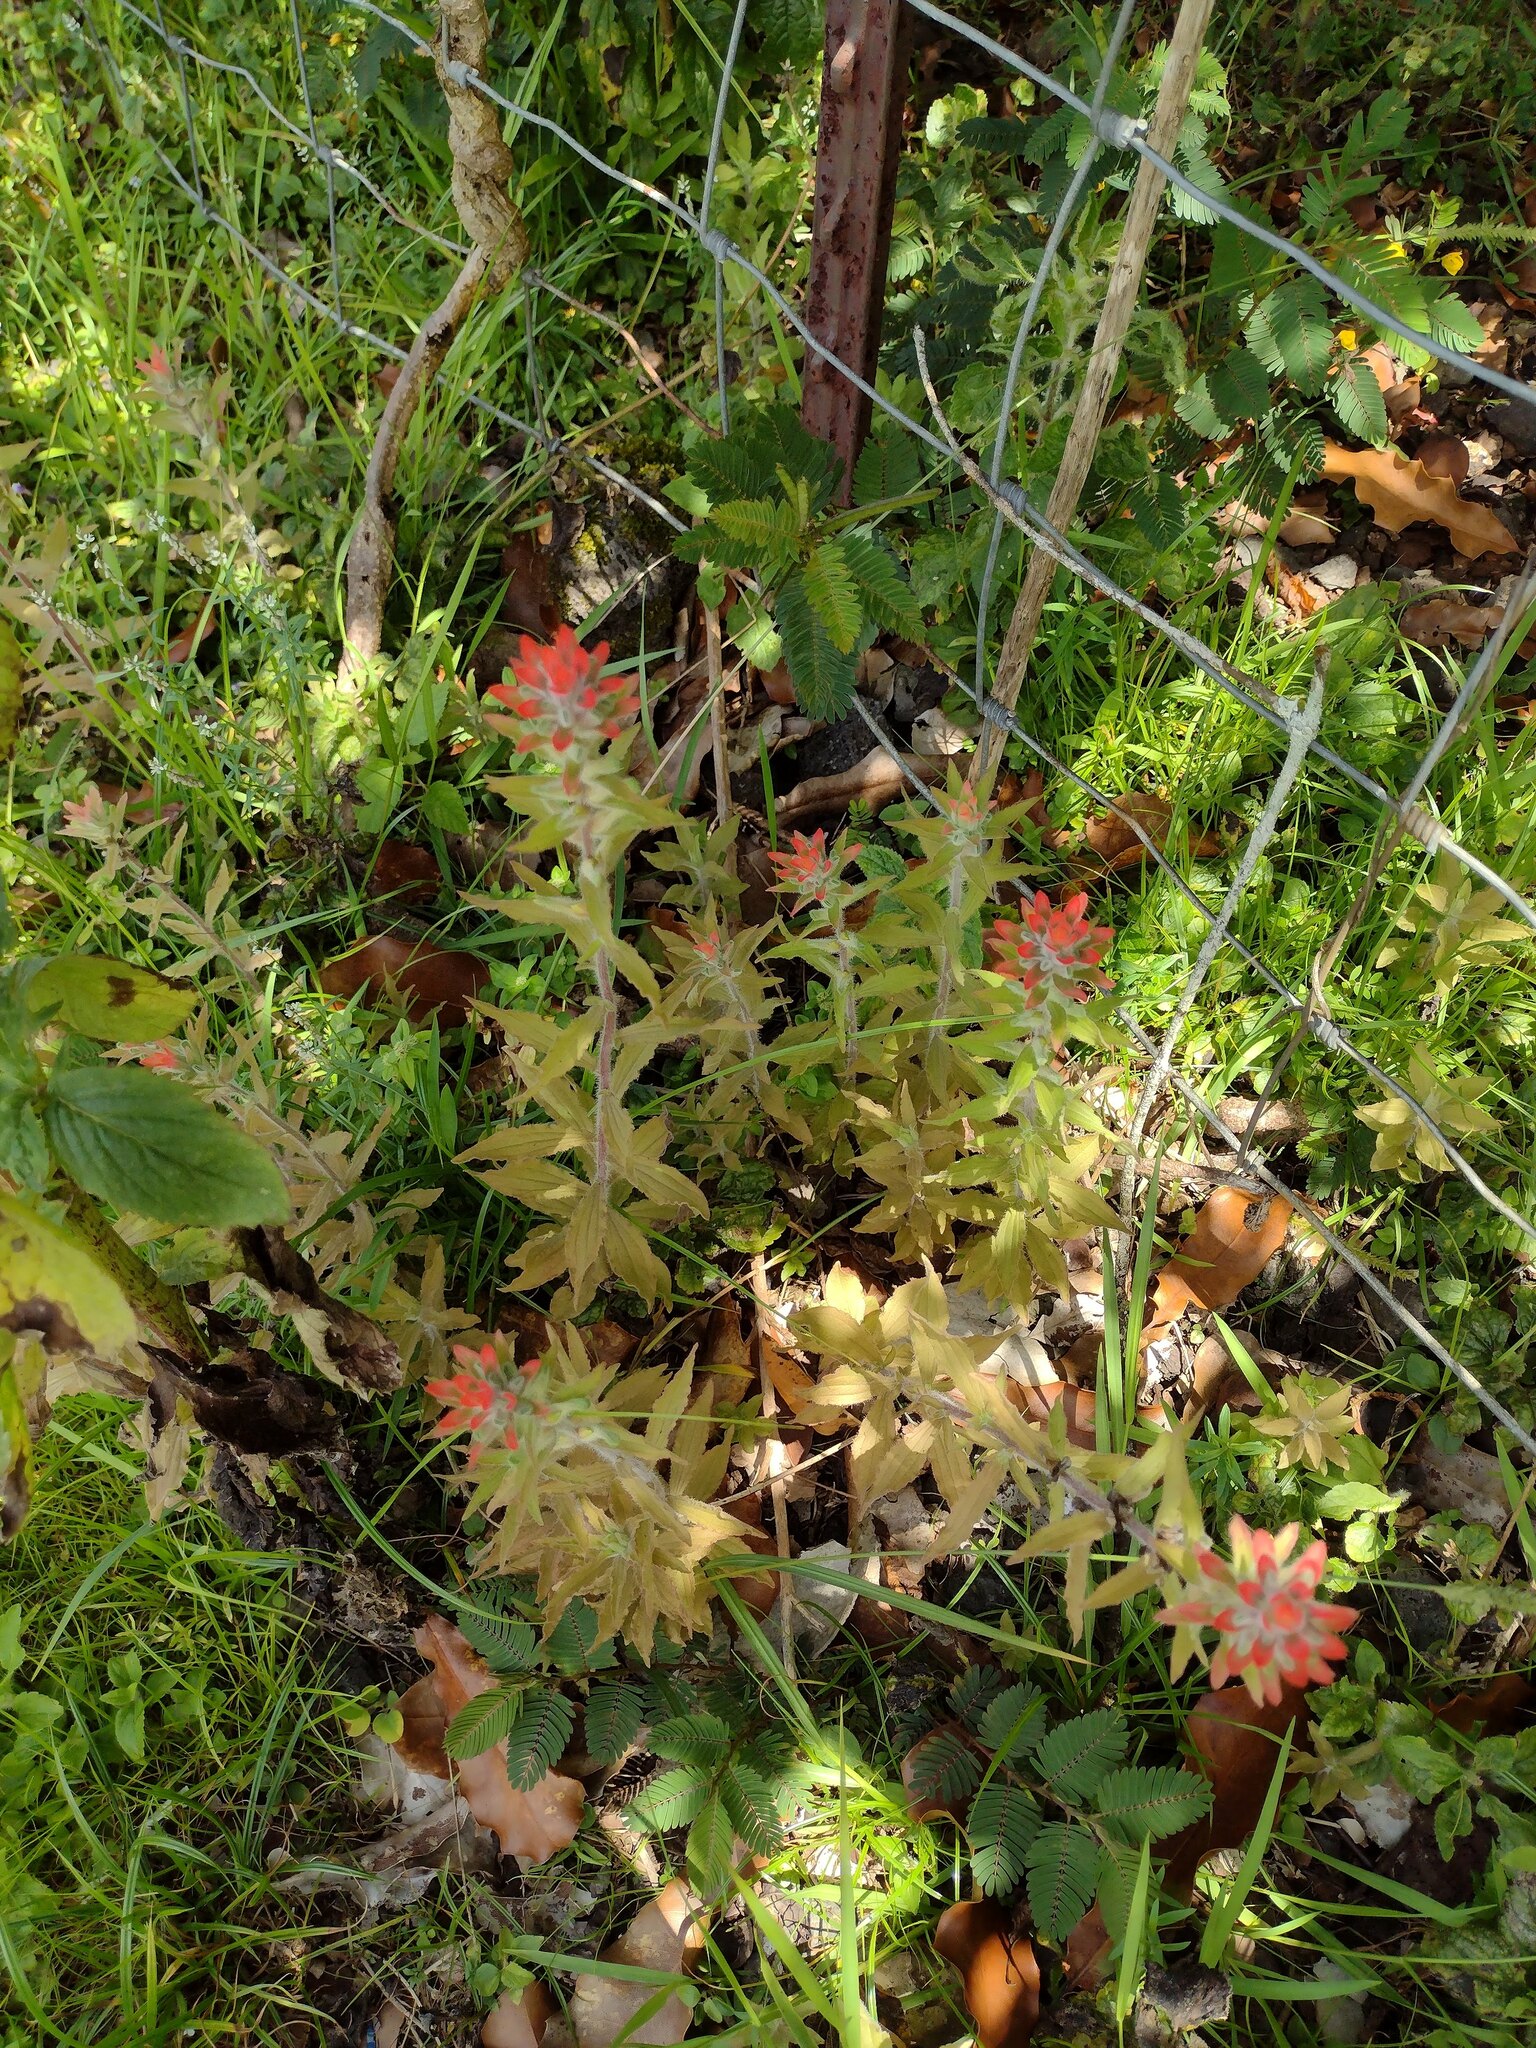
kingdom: Plantae
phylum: Tracheophyta
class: Magnoliopsida
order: Lamiales
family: Orobanchaceae
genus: Castilleja
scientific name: Castilleja arvensis
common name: Indian paintbrush
